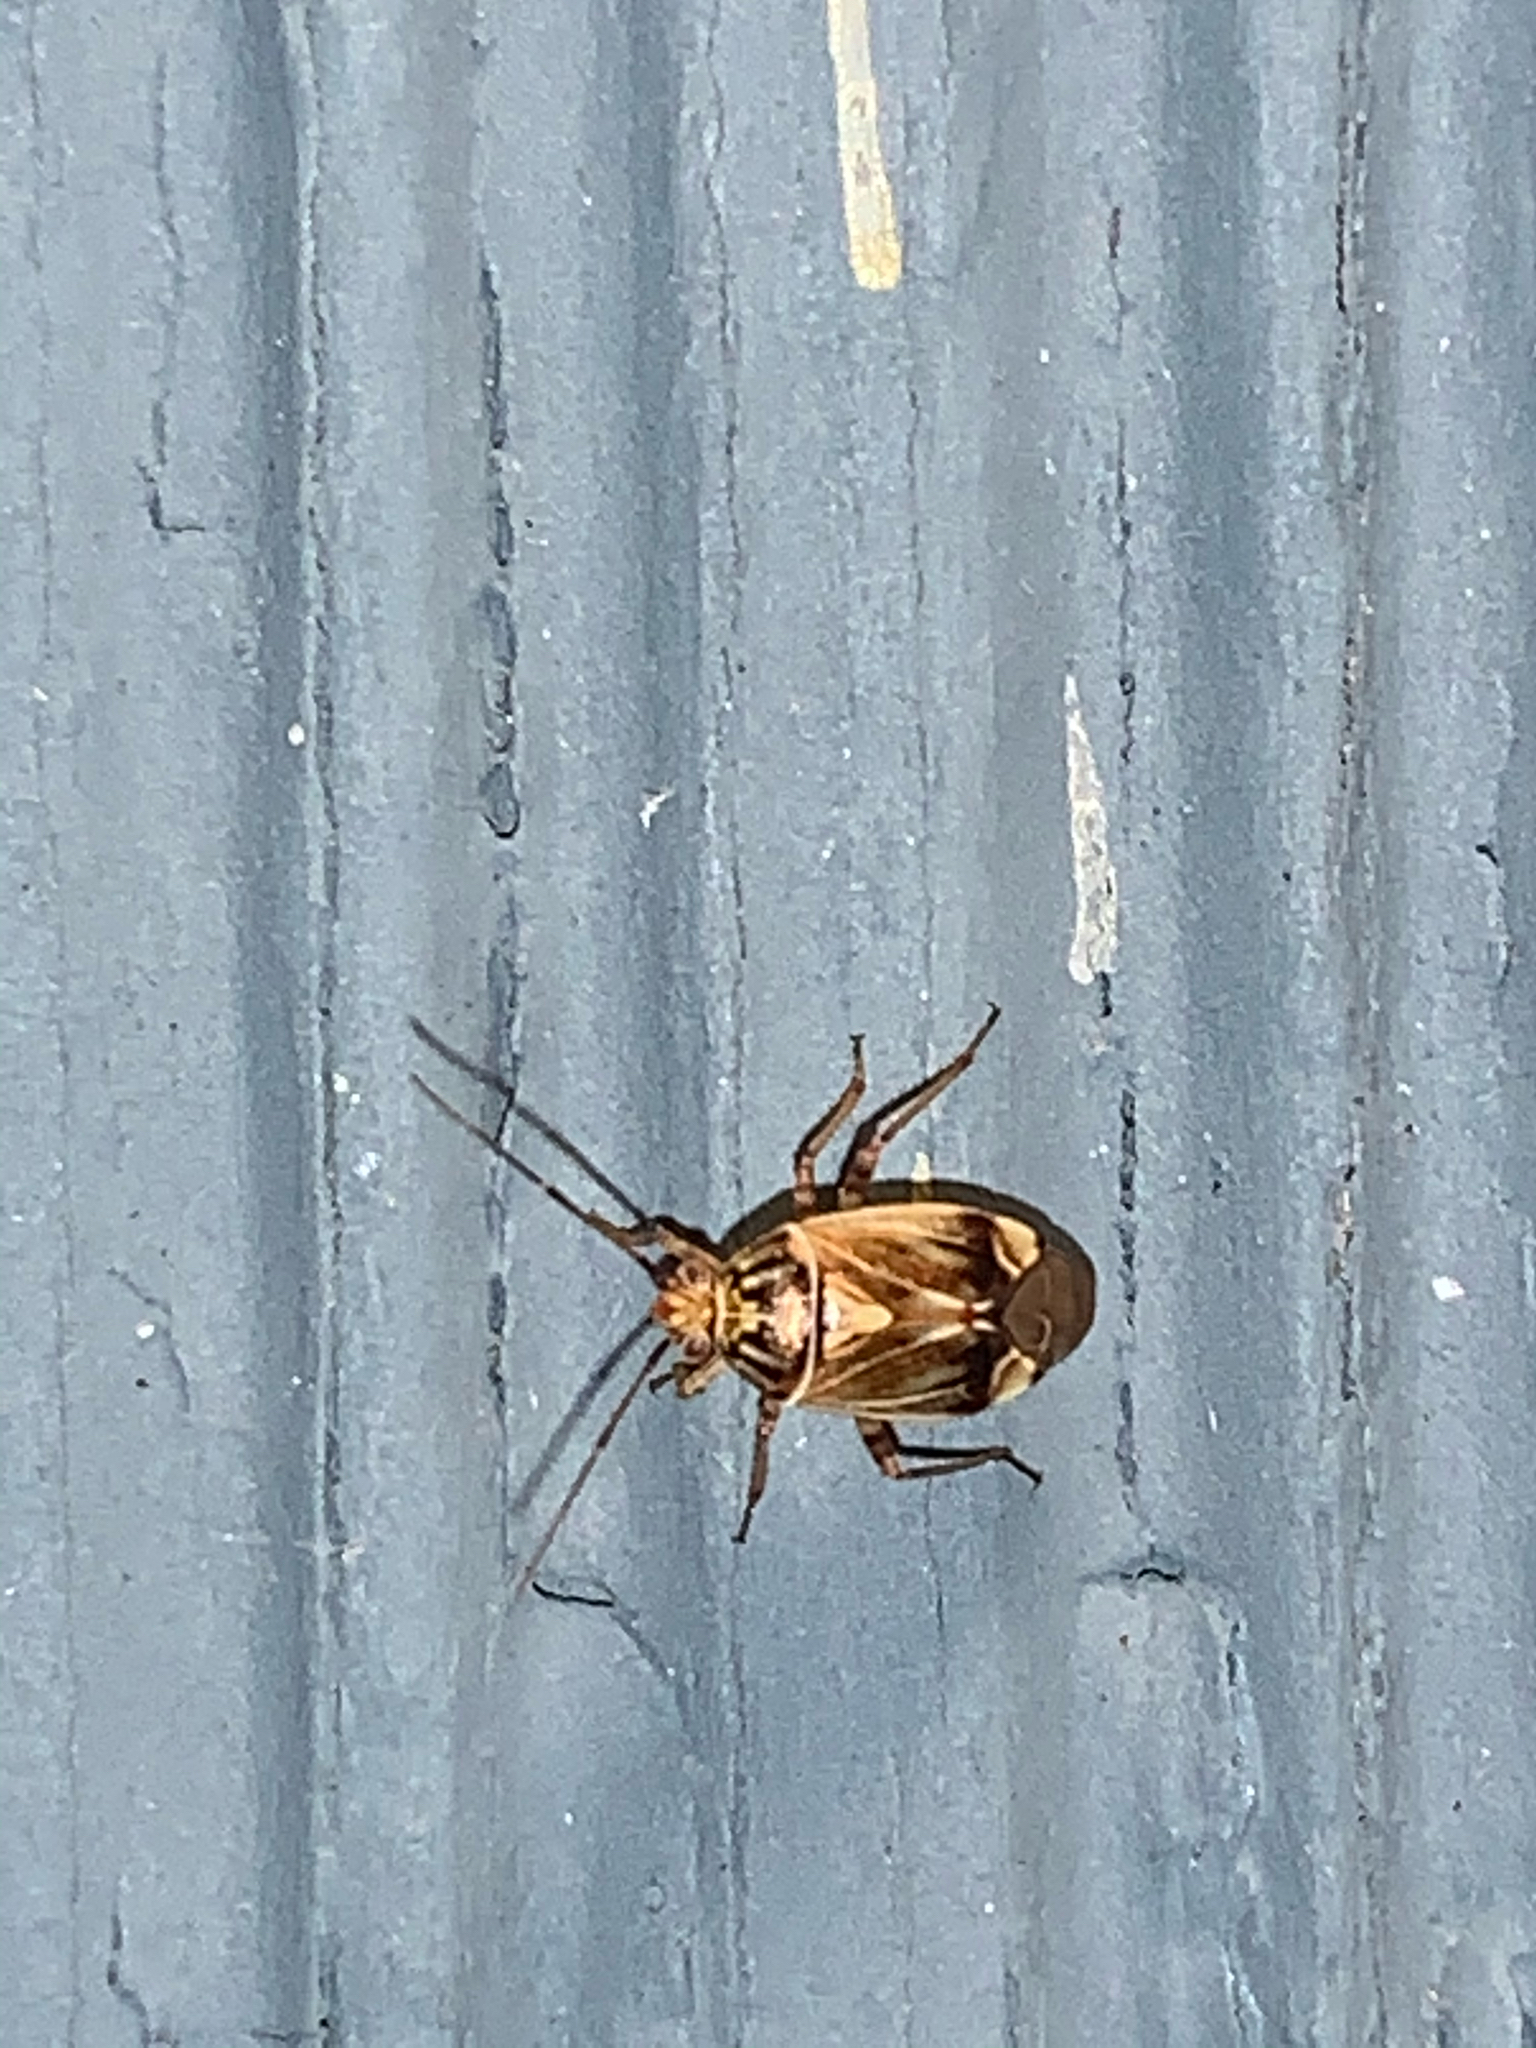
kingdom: Animalia
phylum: Arthropoda
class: Insecta
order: Hemiptera
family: Miridae
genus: Lygus
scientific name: Lygus lineolaris
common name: North american tarnished plant bug
